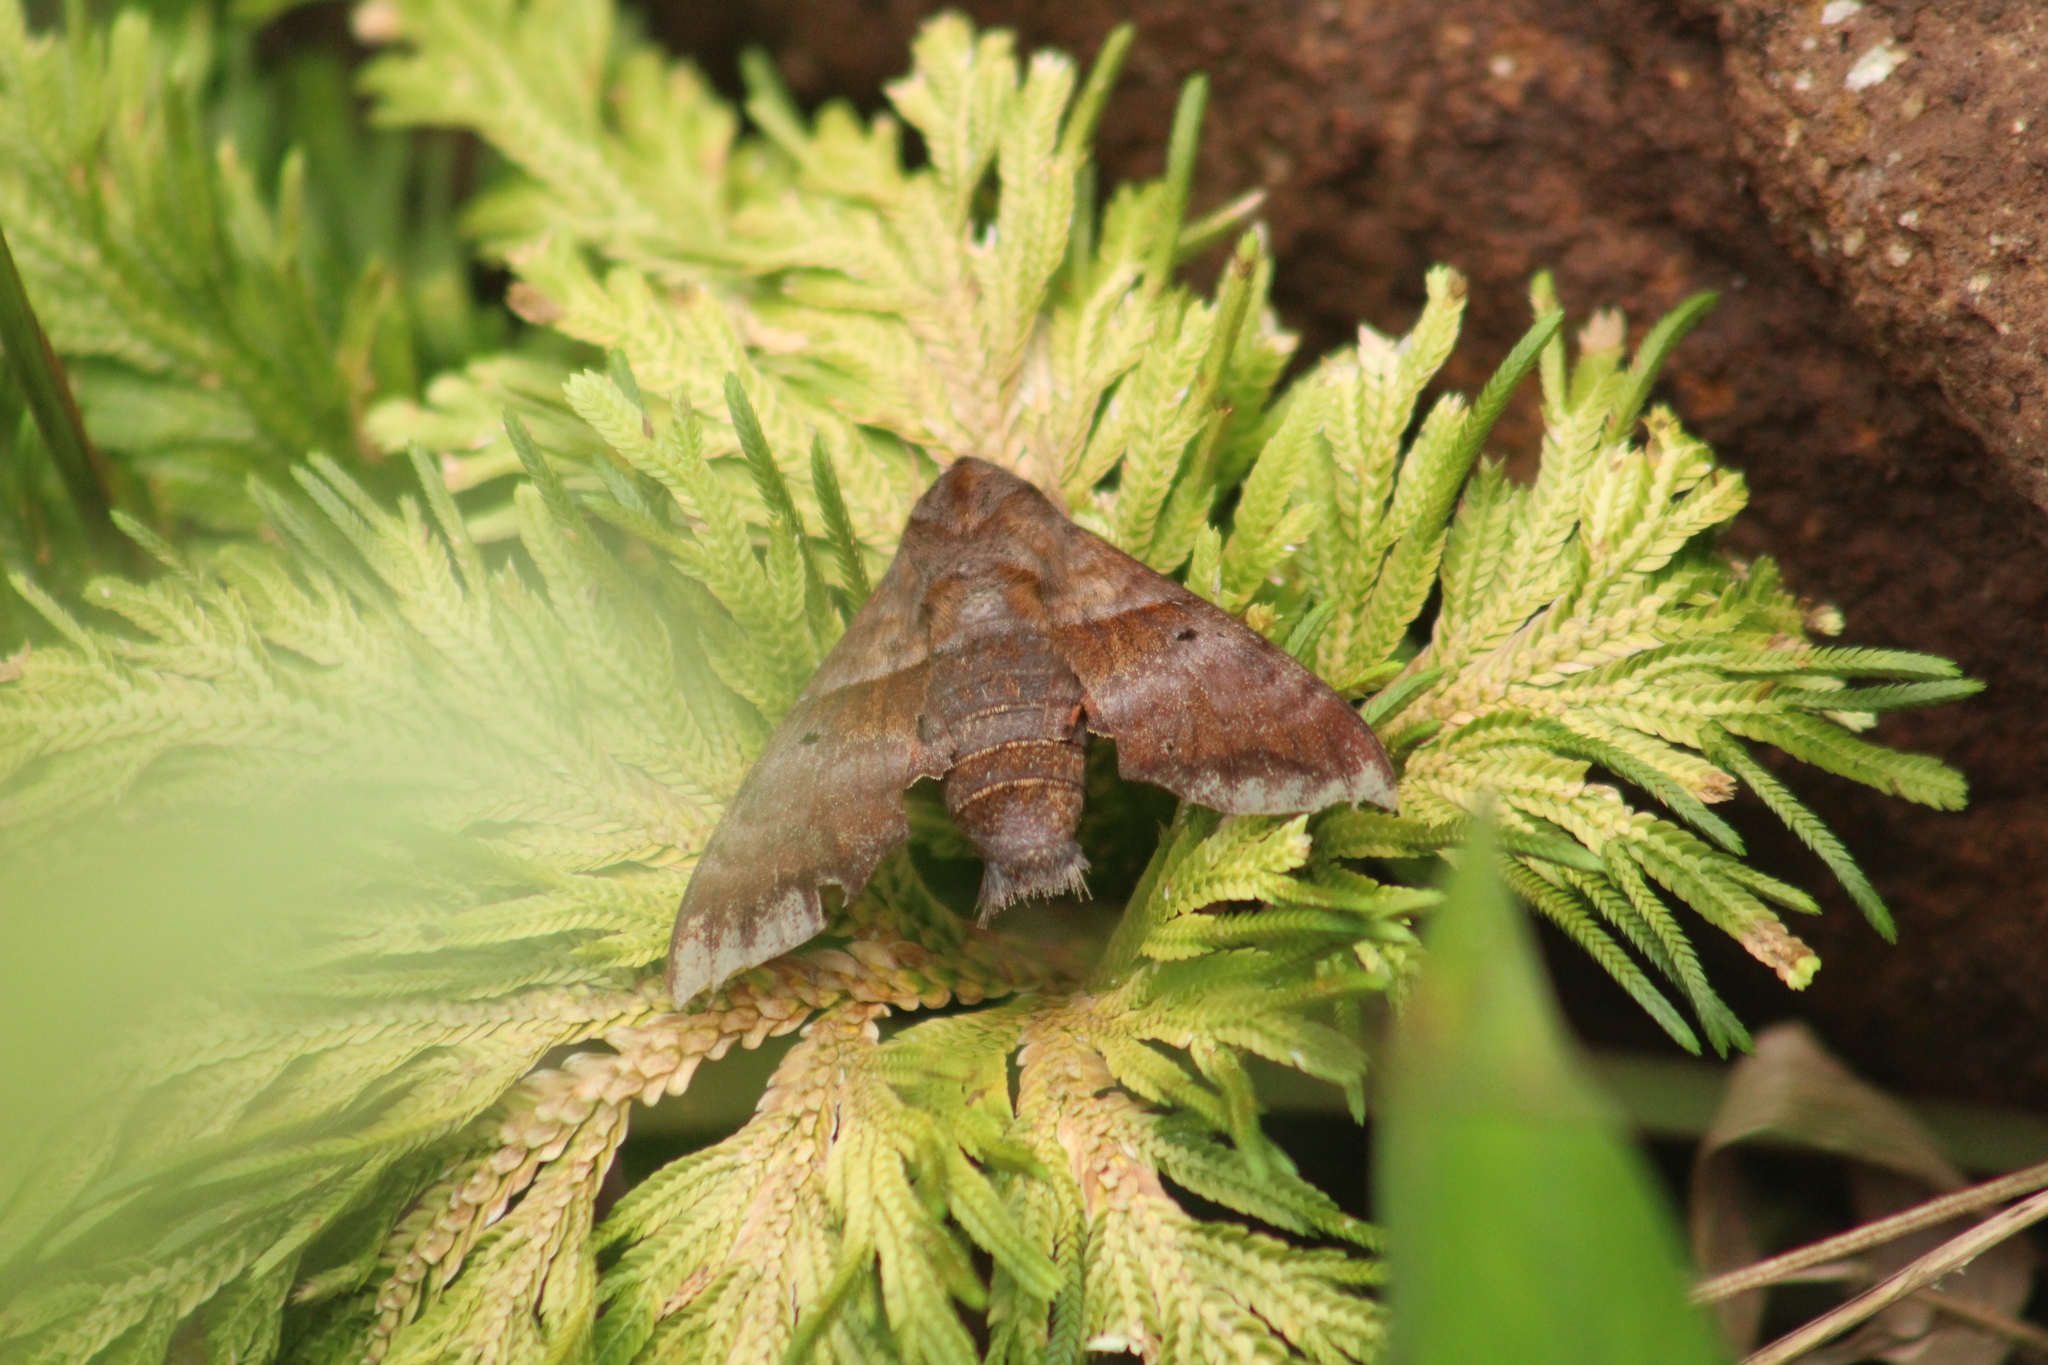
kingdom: Animalia
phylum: Arthropoda
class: Insecta
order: Lepidoptera
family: Sphingidae
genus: Perigonia
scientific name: Perigonia lusca
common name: Half-blind sphinx
